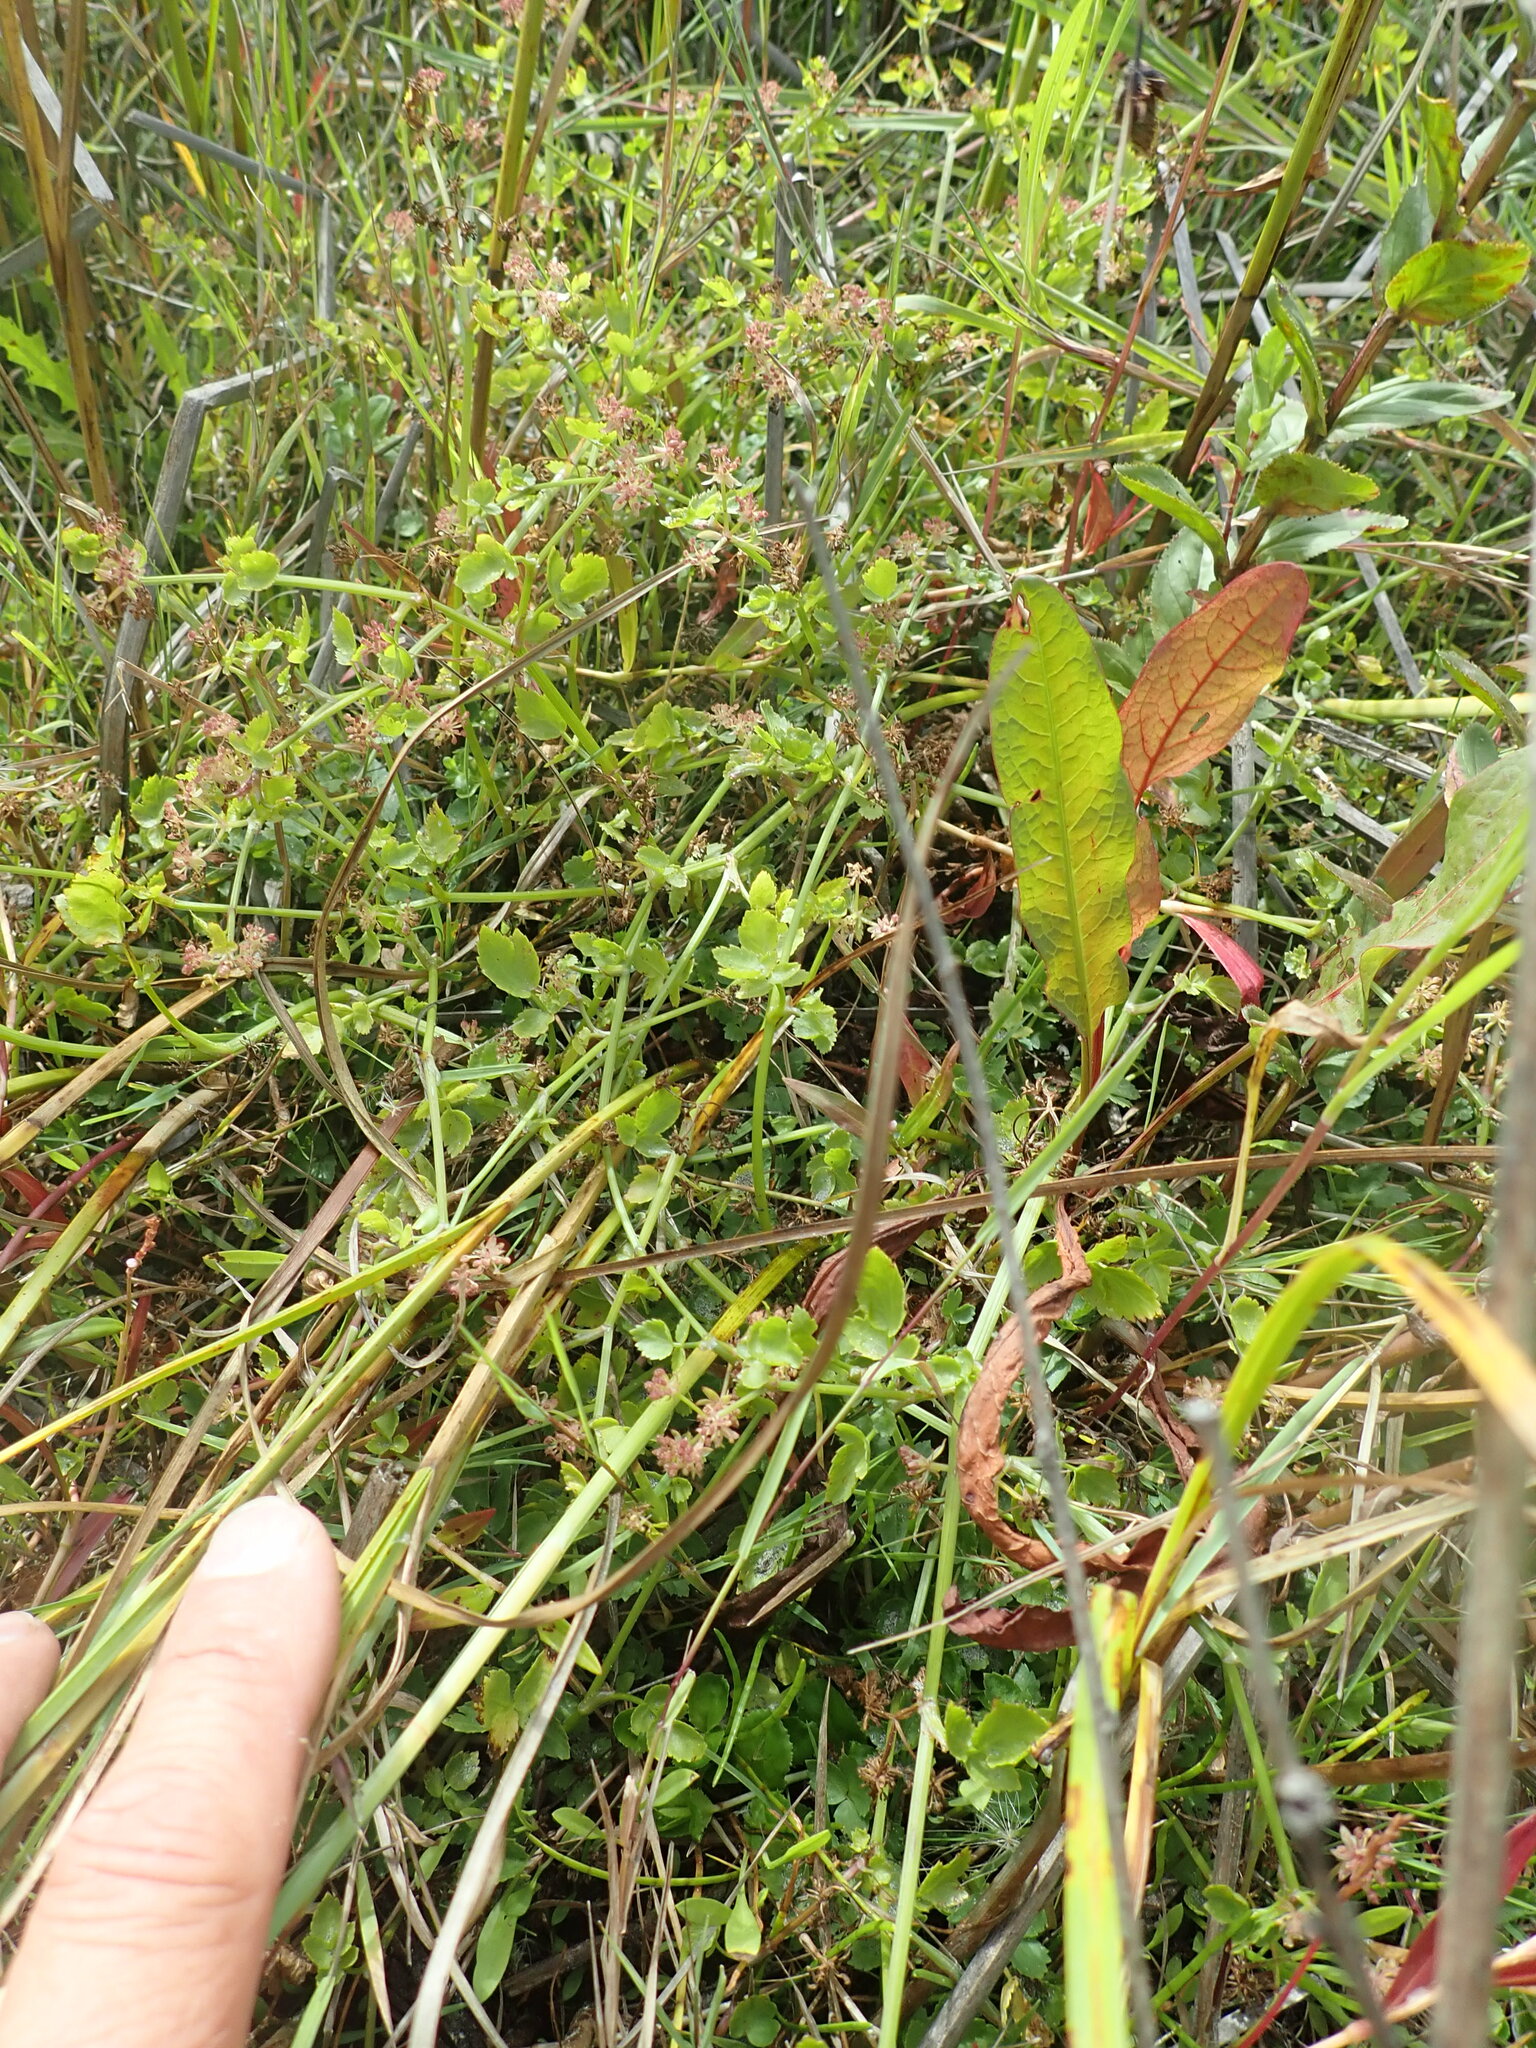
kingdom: Plantae
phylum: Tracheophyta
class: Magnoliopsida
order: Apiales
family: Apiaceae
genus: Helosciadium
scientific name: Helosciadium nodiflorum
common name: Fool's-watercress
